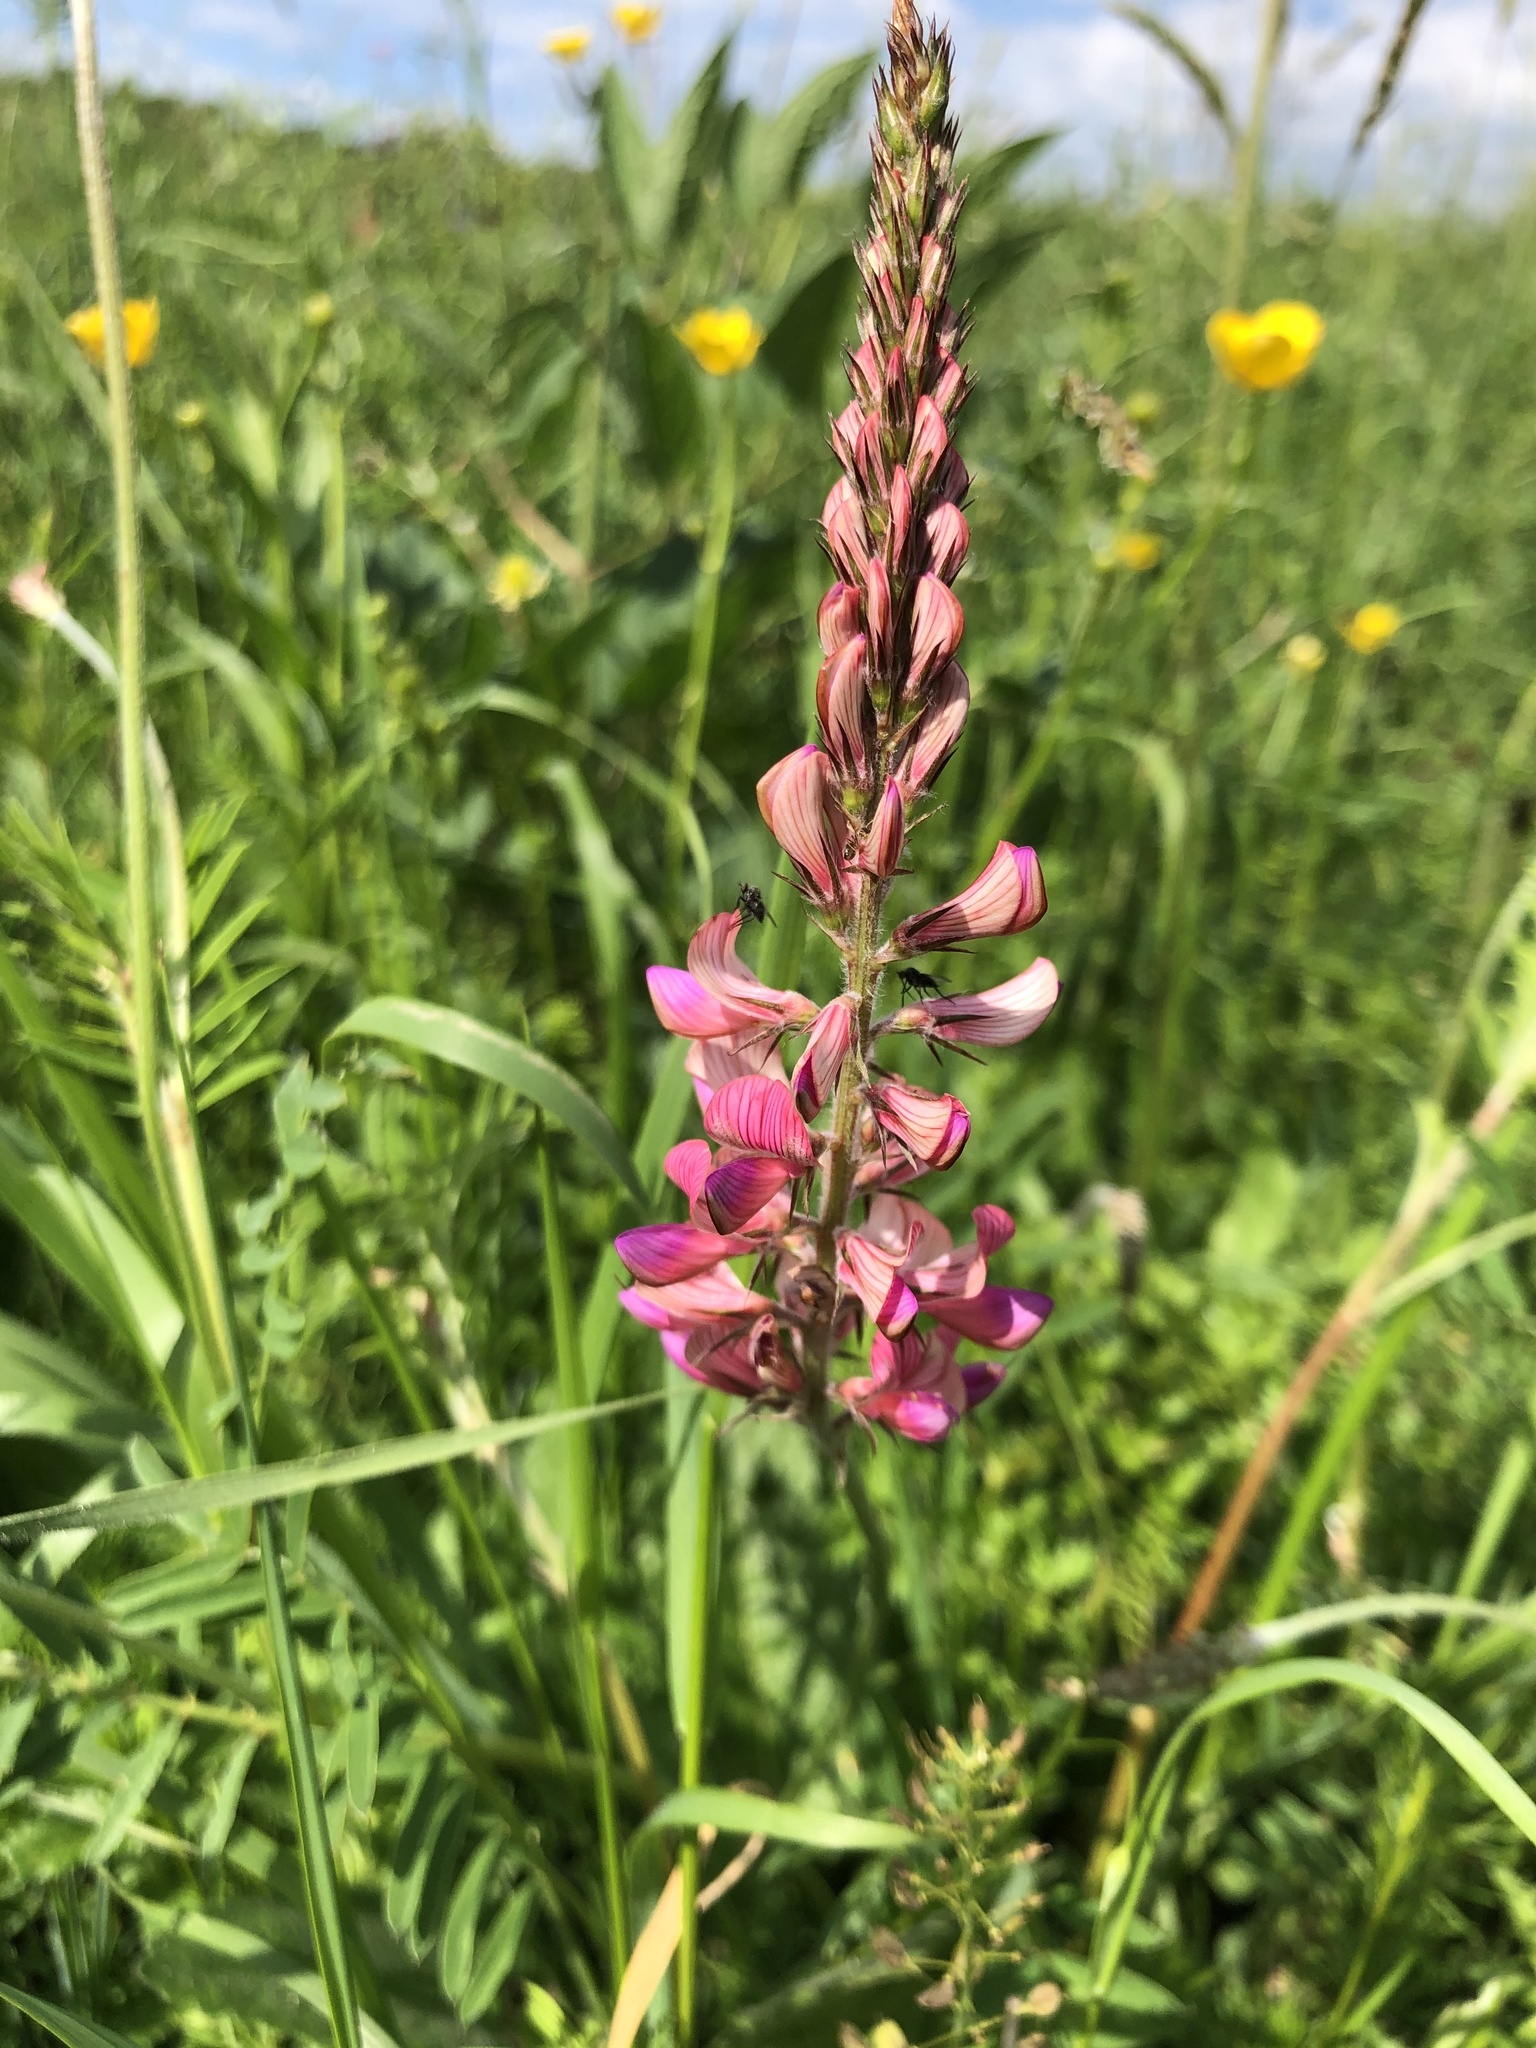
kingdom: Plantae
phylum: Tracheophyta
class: Magnoliopsida
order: Fabales
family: Fabaceae
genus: Onobrychis
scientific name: Onobrychis viciifolia
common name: Sainfoin
